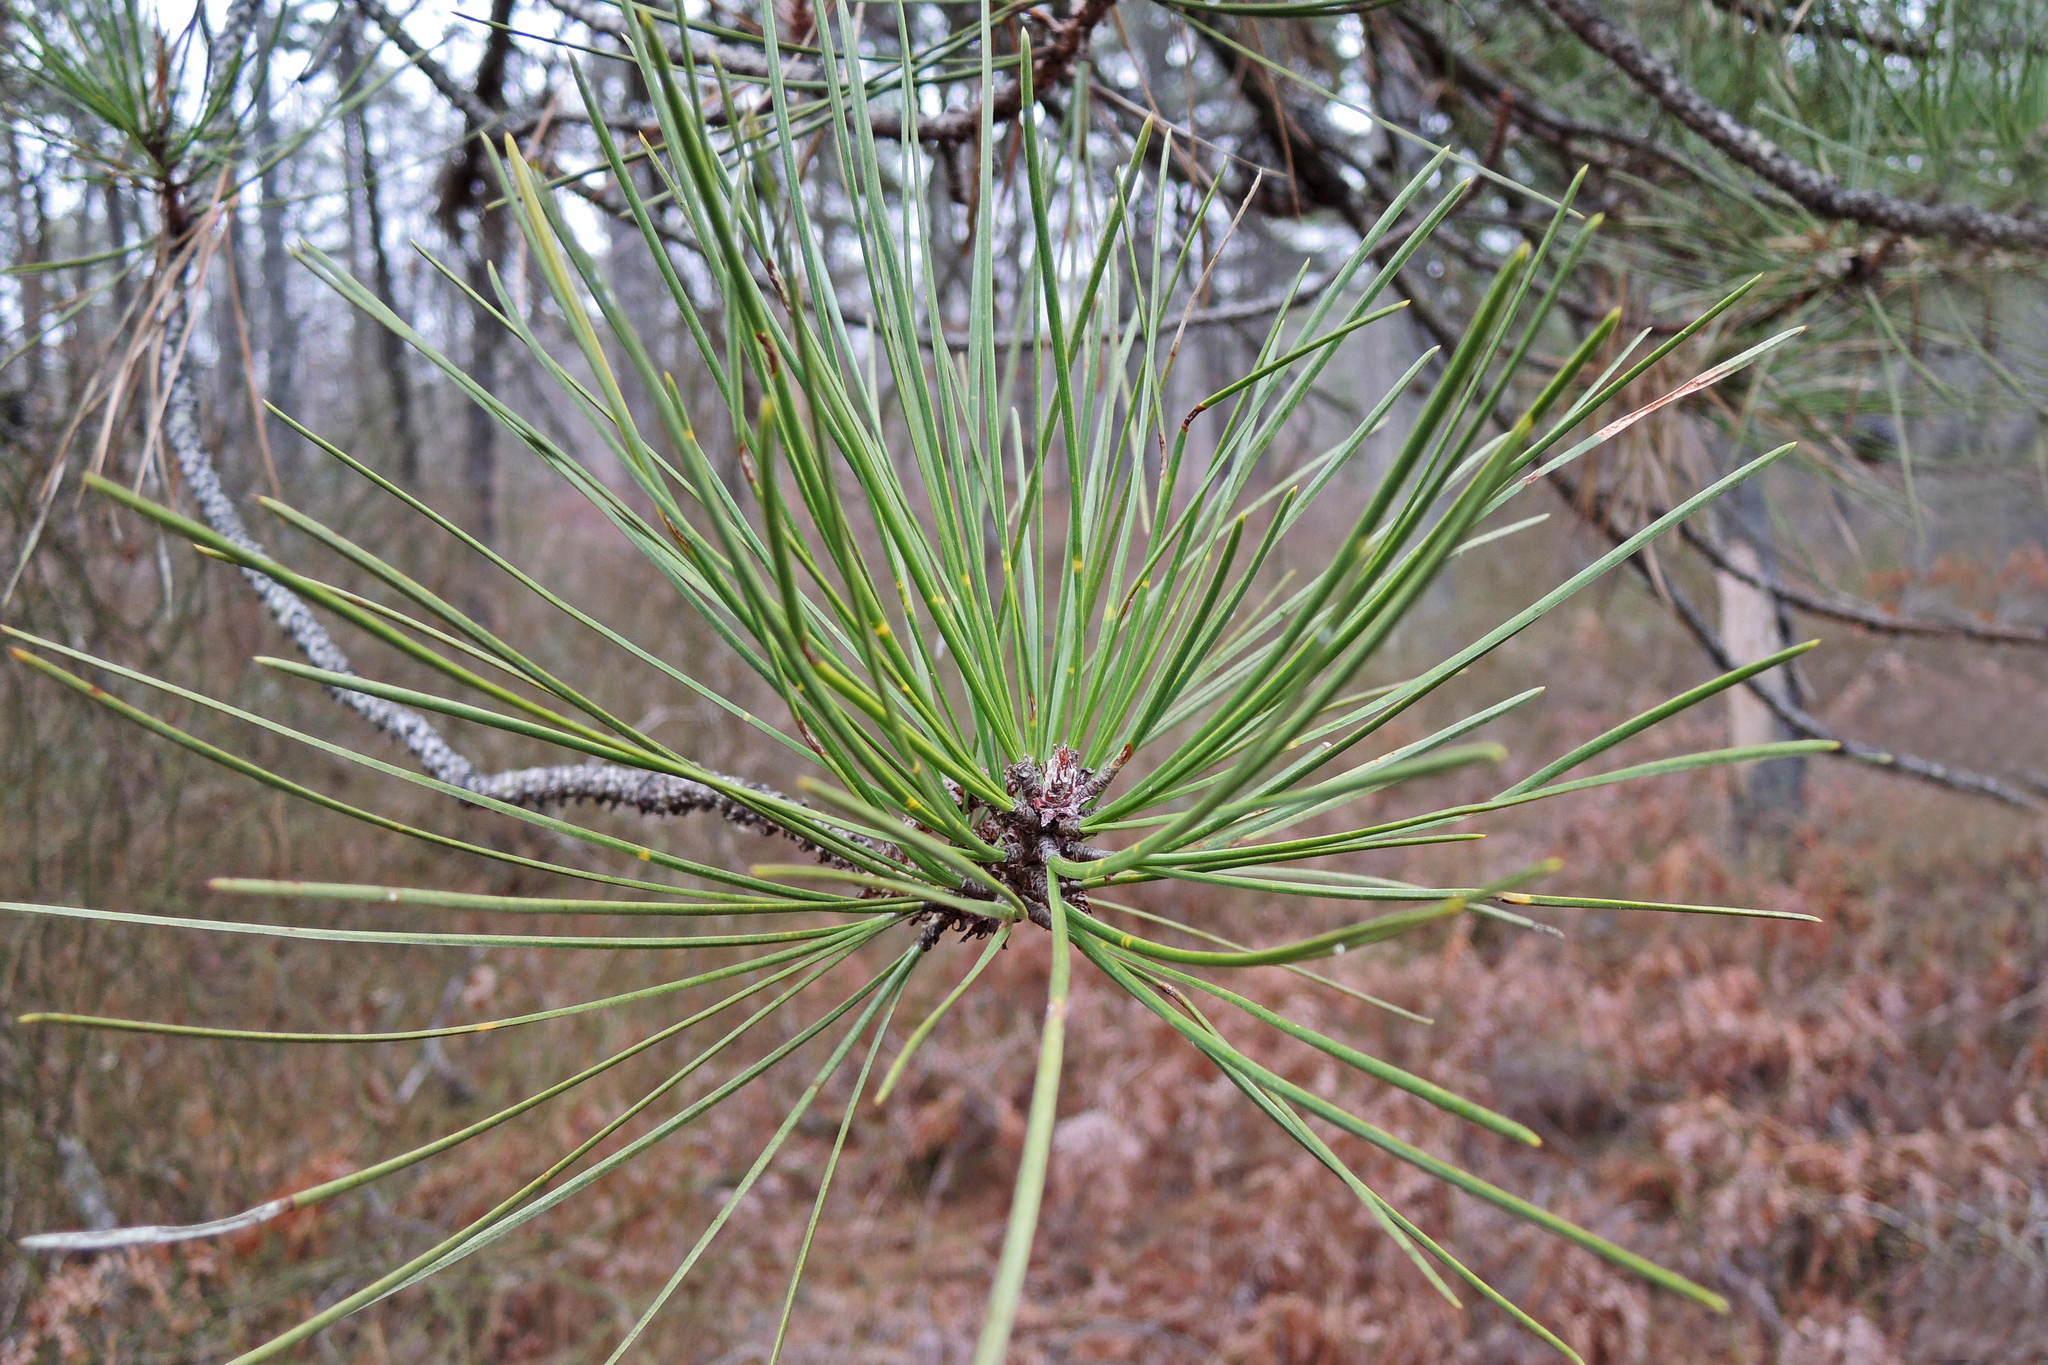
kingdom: Plantae
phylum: Tracheophyta
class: Pinopsida
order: Pinales
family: Pinaceae
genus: Pinus
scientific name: Pinus rigida
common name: Pitch pine
